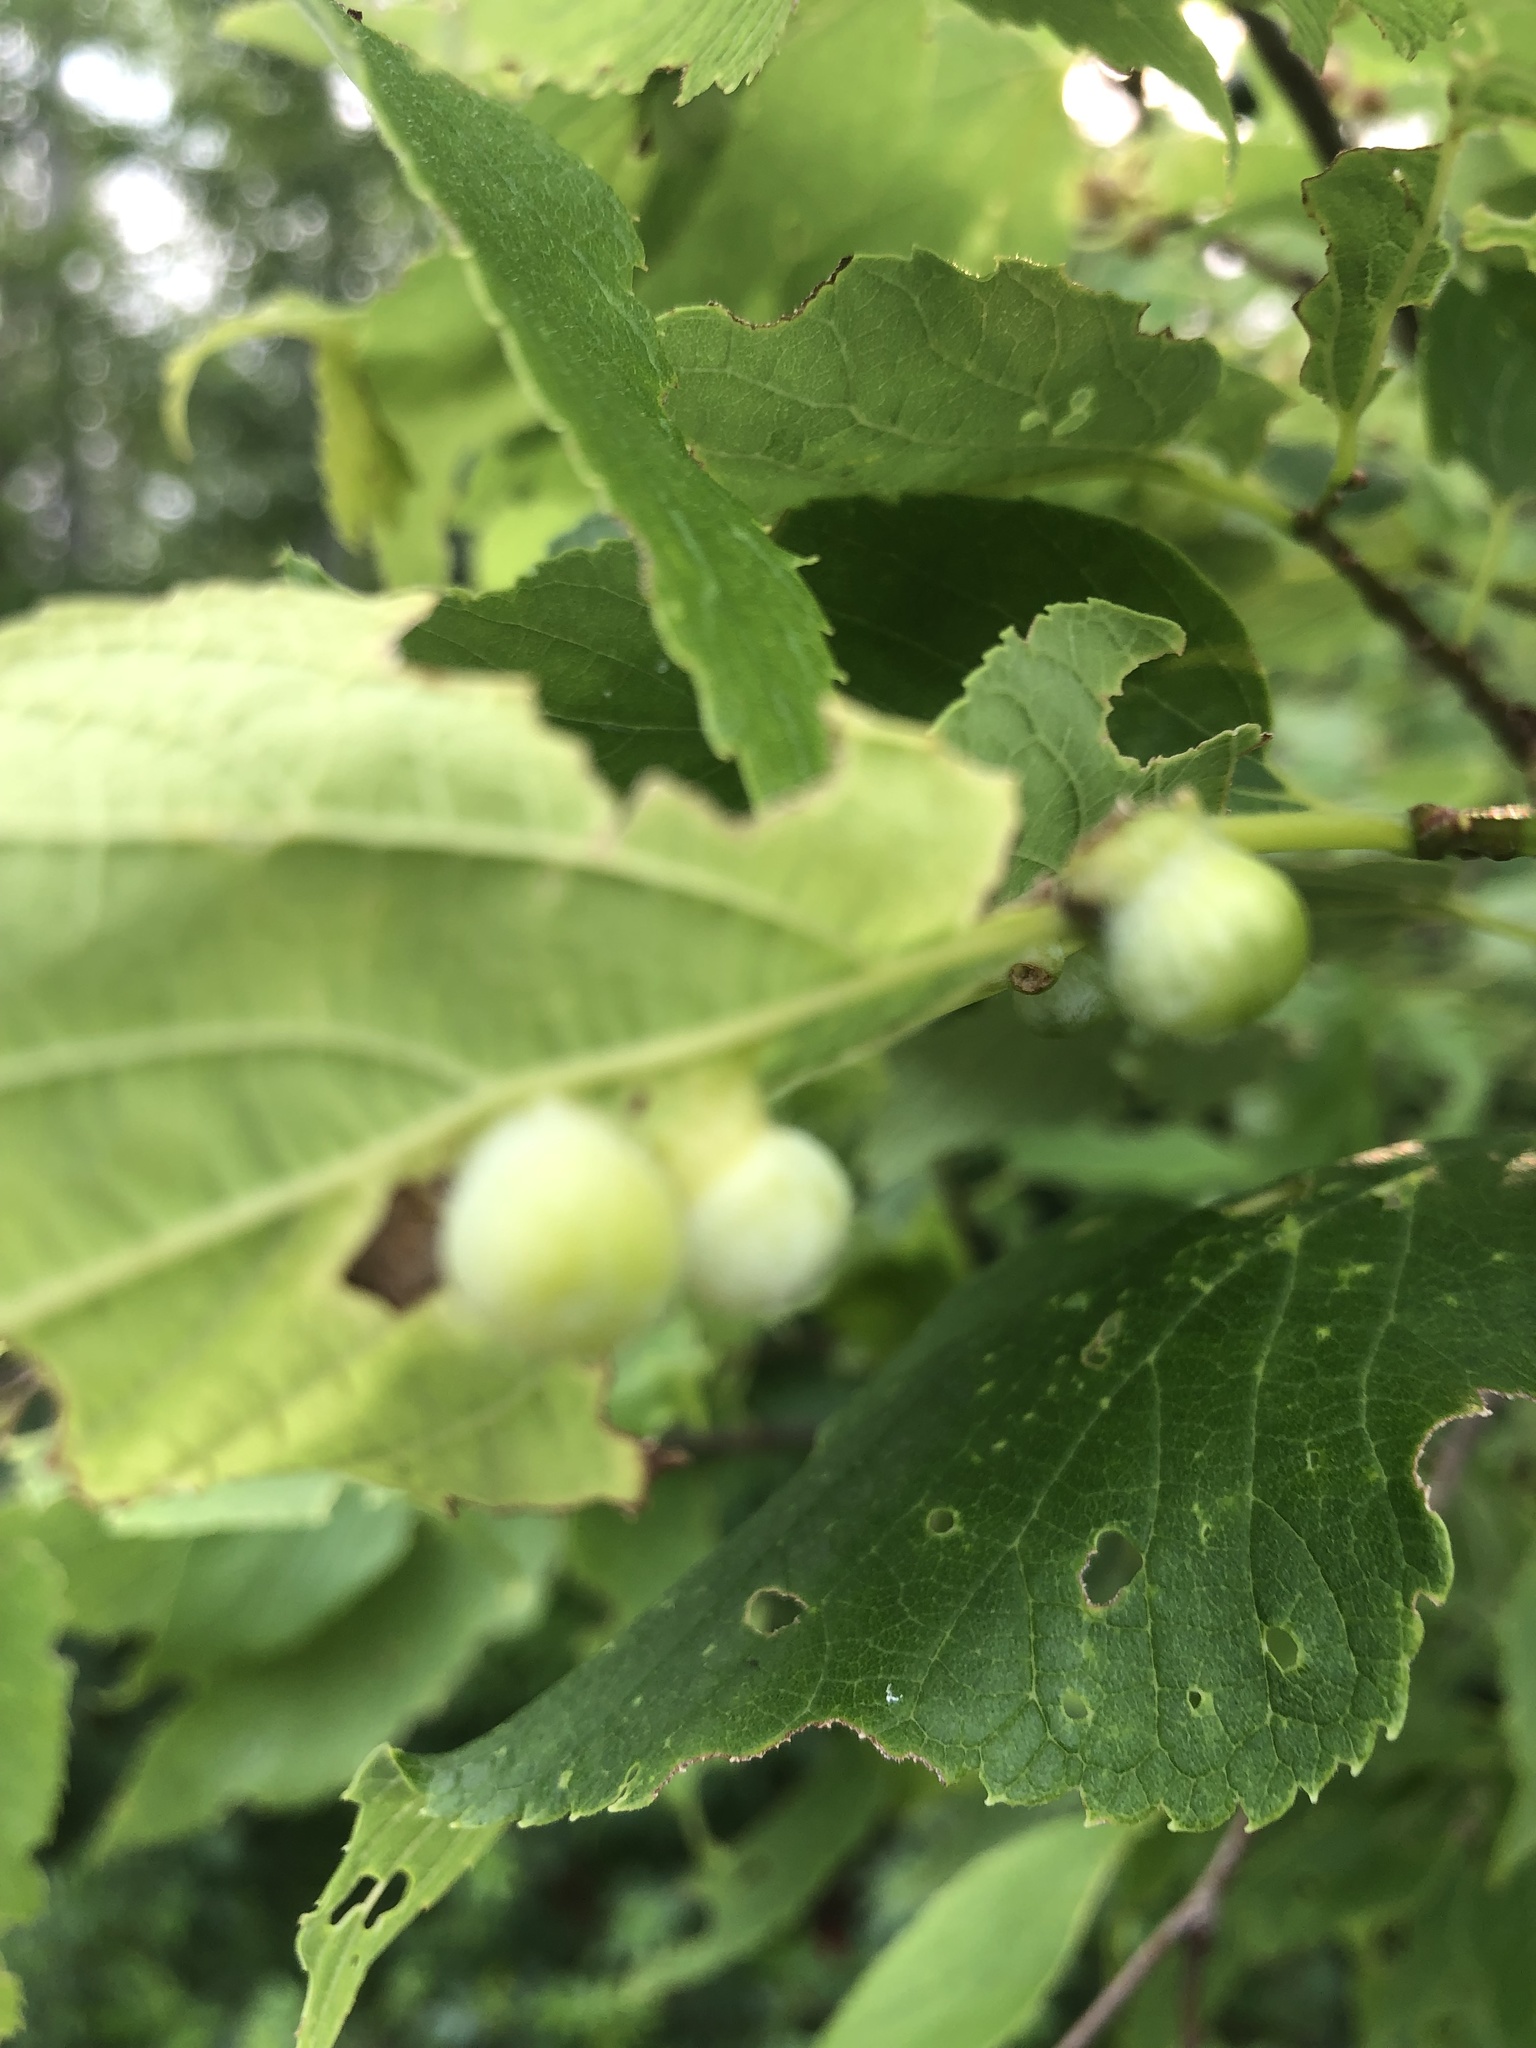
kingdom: Animalia
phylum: Arthropoda
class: Insecta
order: Hemiptera
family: Aphalaridae
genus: Pachypsylla
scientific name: Pachypsylla celtidismamma
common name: Hackberry nipplegall psyllid
